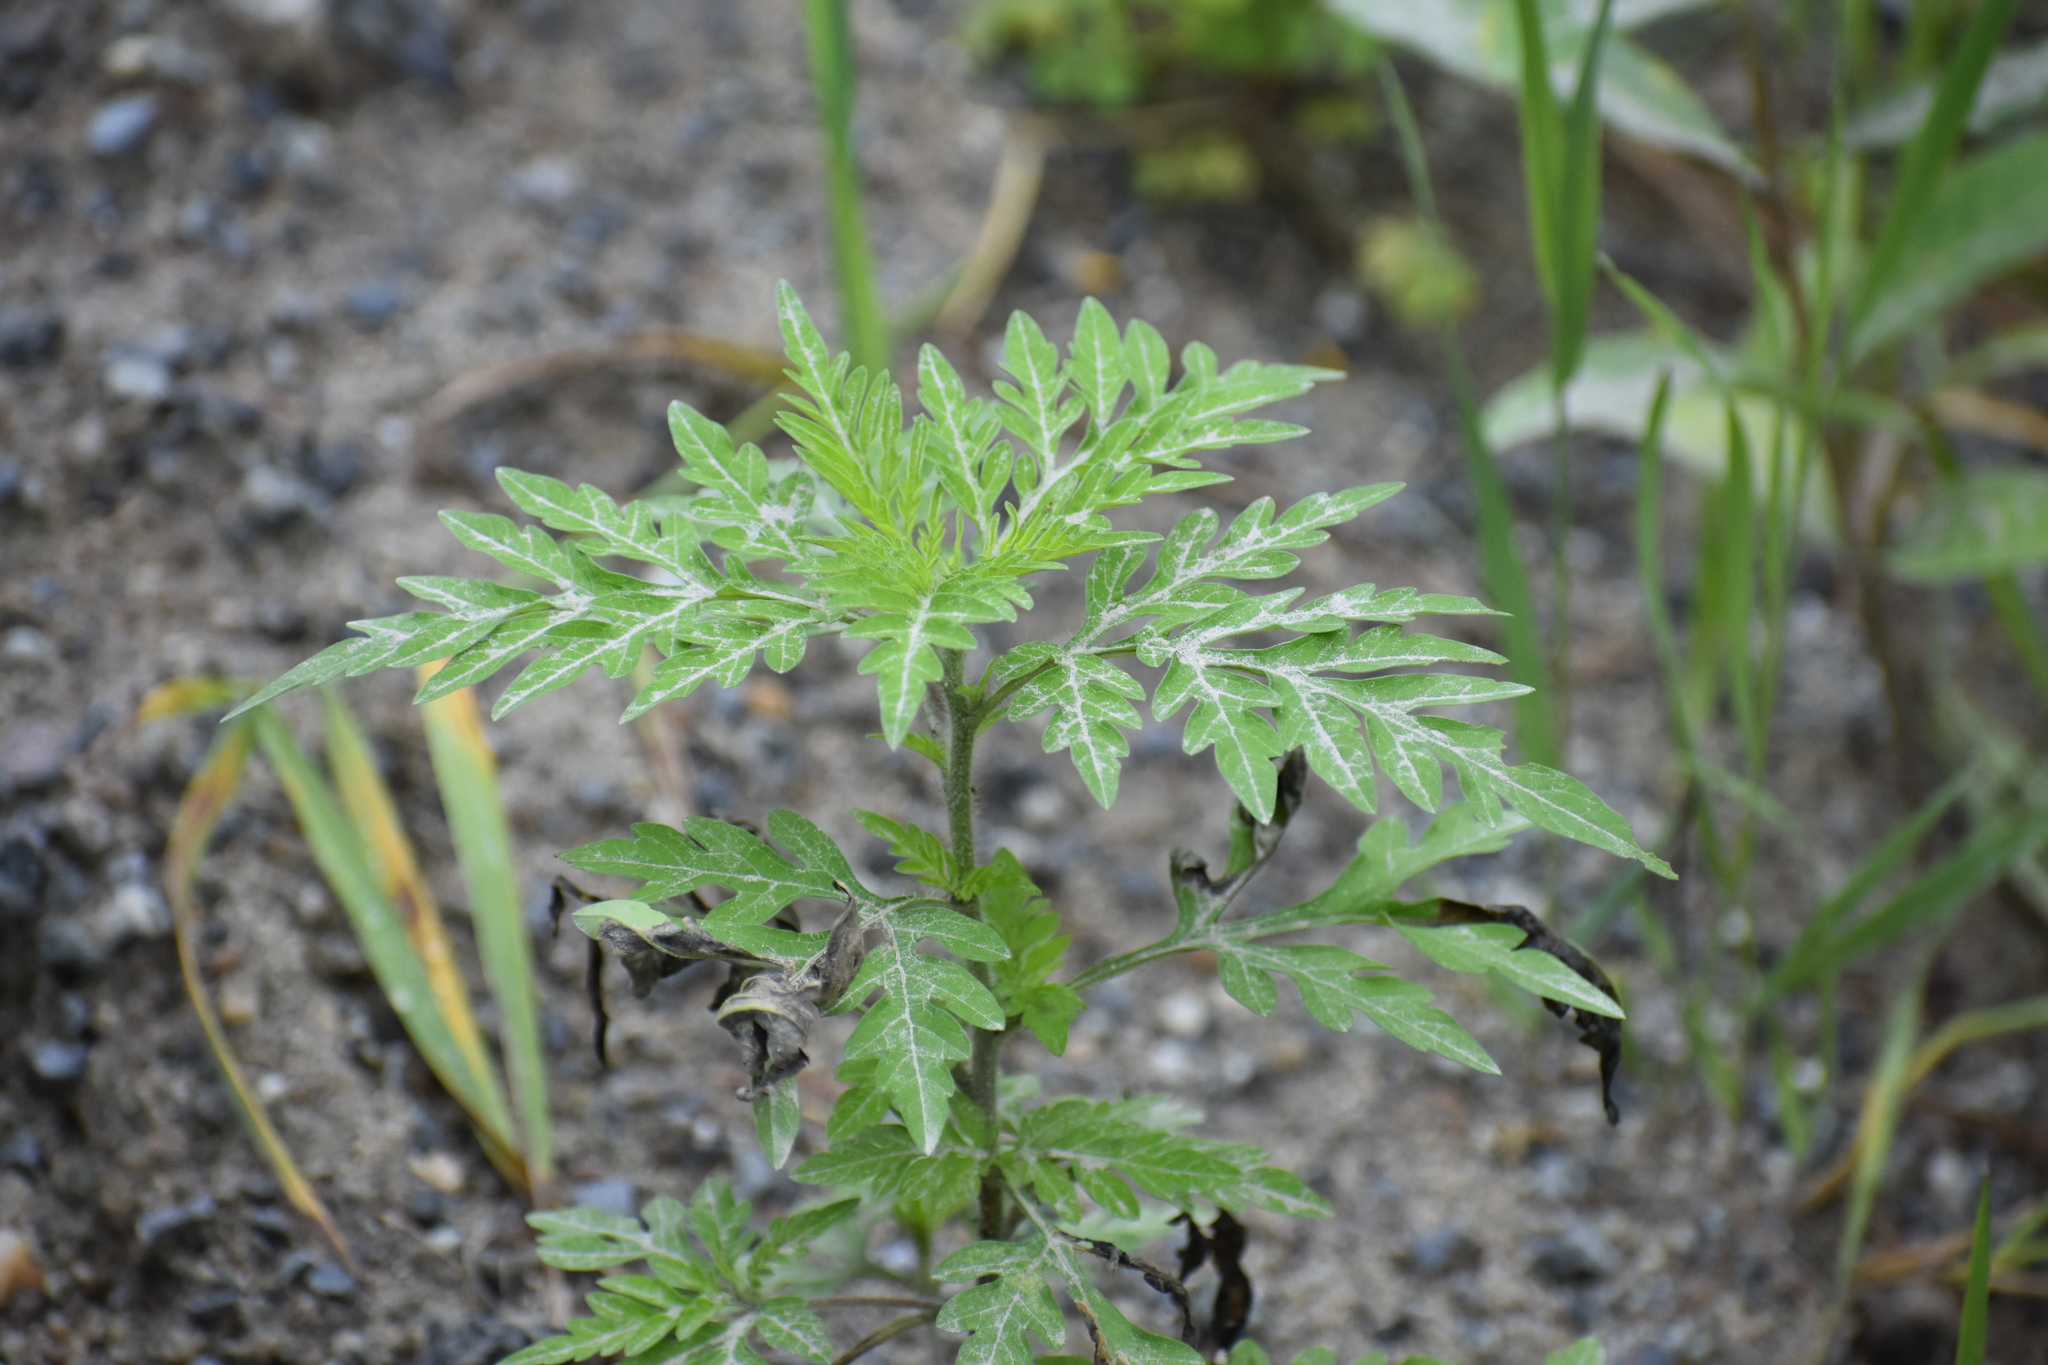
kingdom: Plantae
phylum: Tracheophyta
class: Magnoliopsida
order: Asterales
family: Asteraceae
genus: Ambrosia
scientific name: Ambrosia artemisiifolia
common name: Annual ragweed
